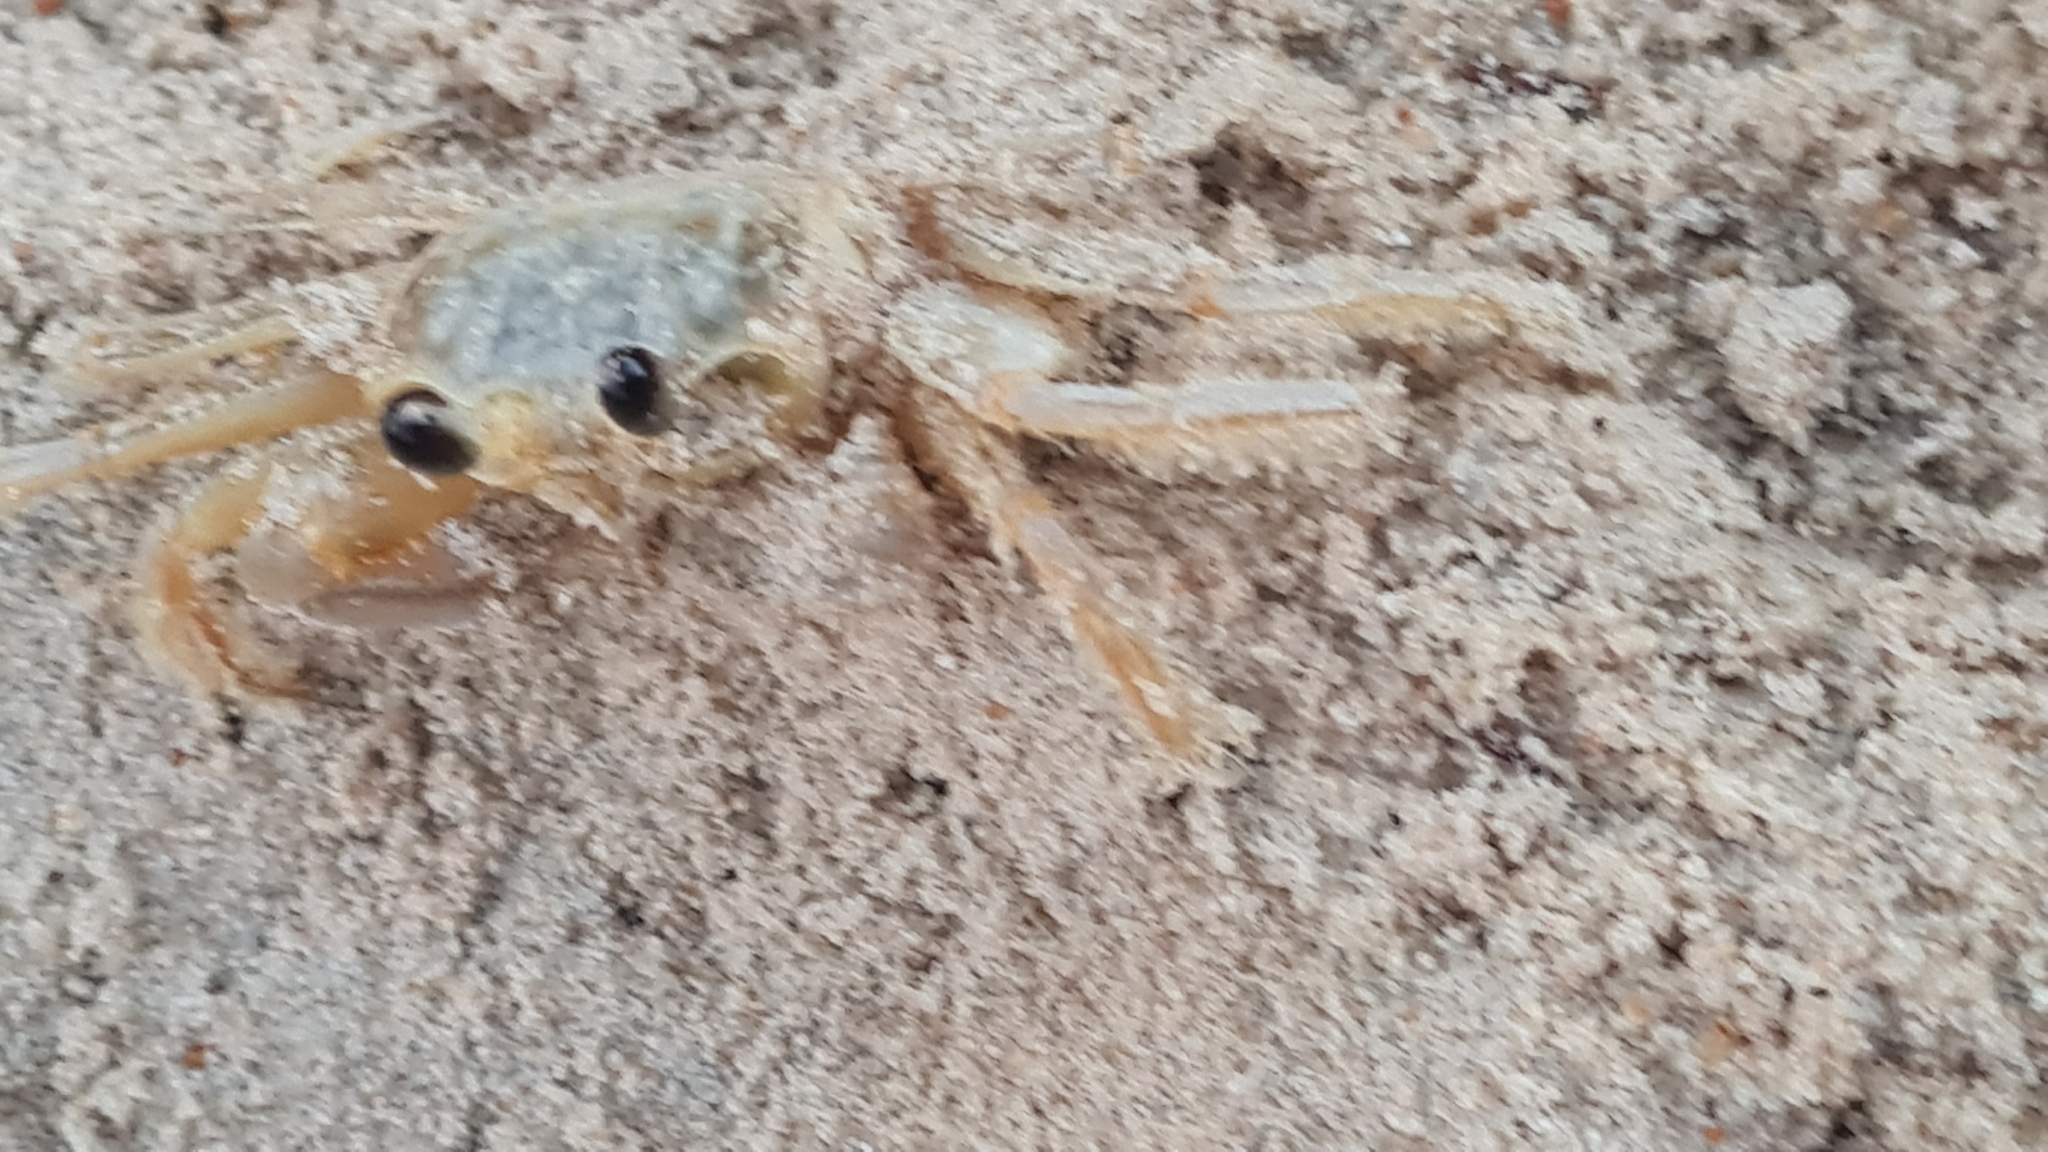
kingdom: Animalia
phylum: Arthropoda
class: Malacostraca
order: Decapoda
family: Ocypodidae
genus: Ocypode
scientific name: Ocypode quadrata
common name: Ghost crab
